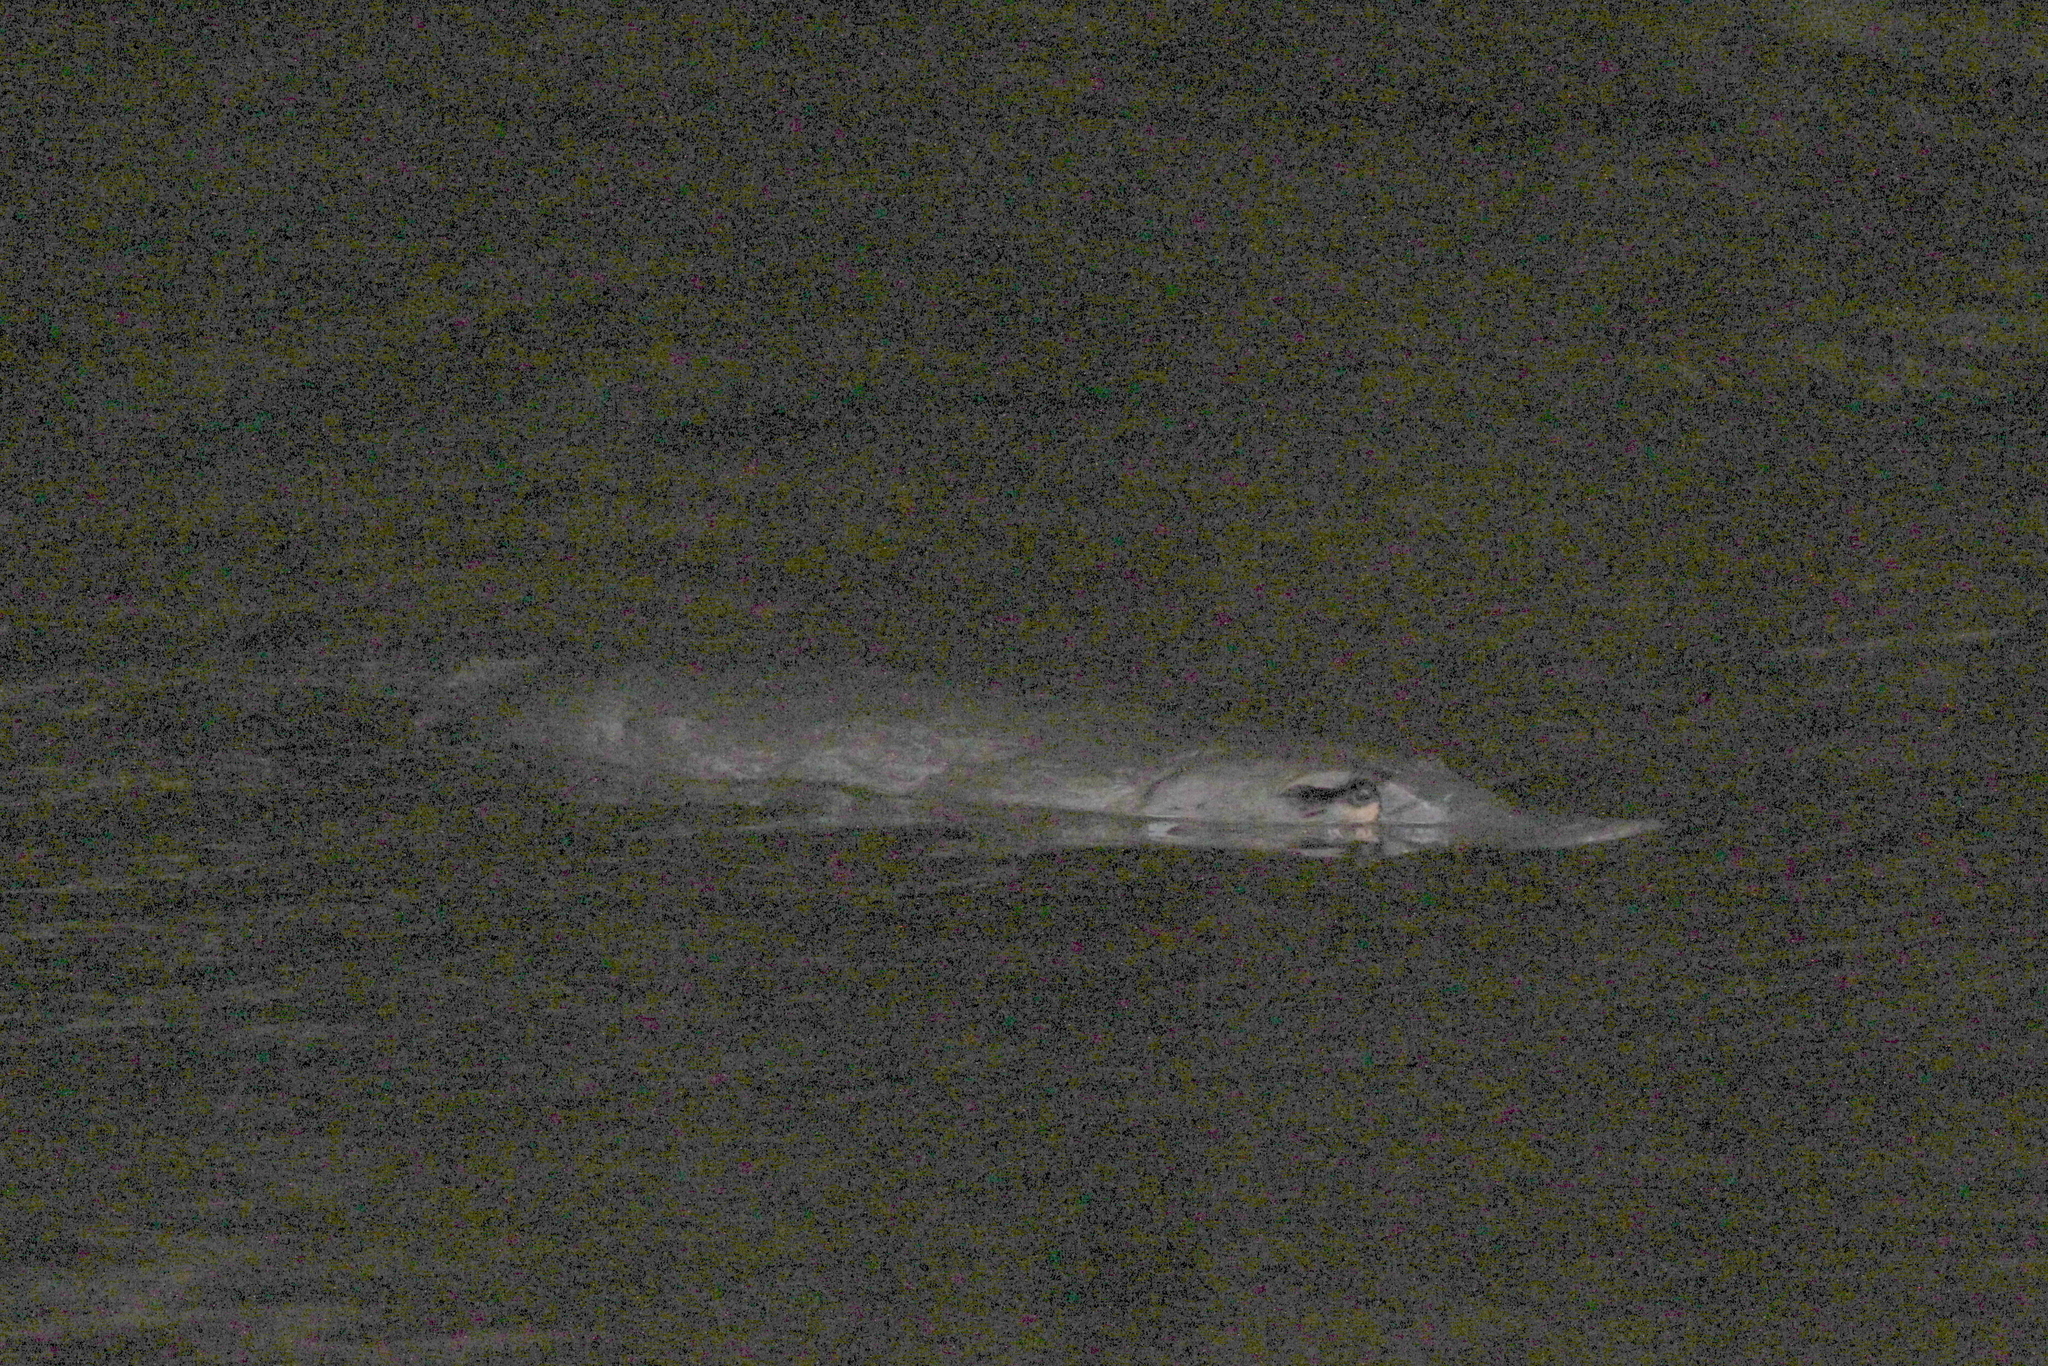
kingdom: Animalia
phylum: Chordata
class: Mammalia
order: Monotremata
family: Ornithorhynchidae
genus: Ornithorhynchus
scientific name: Ornithorhynchus anatinus
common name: Platypus
